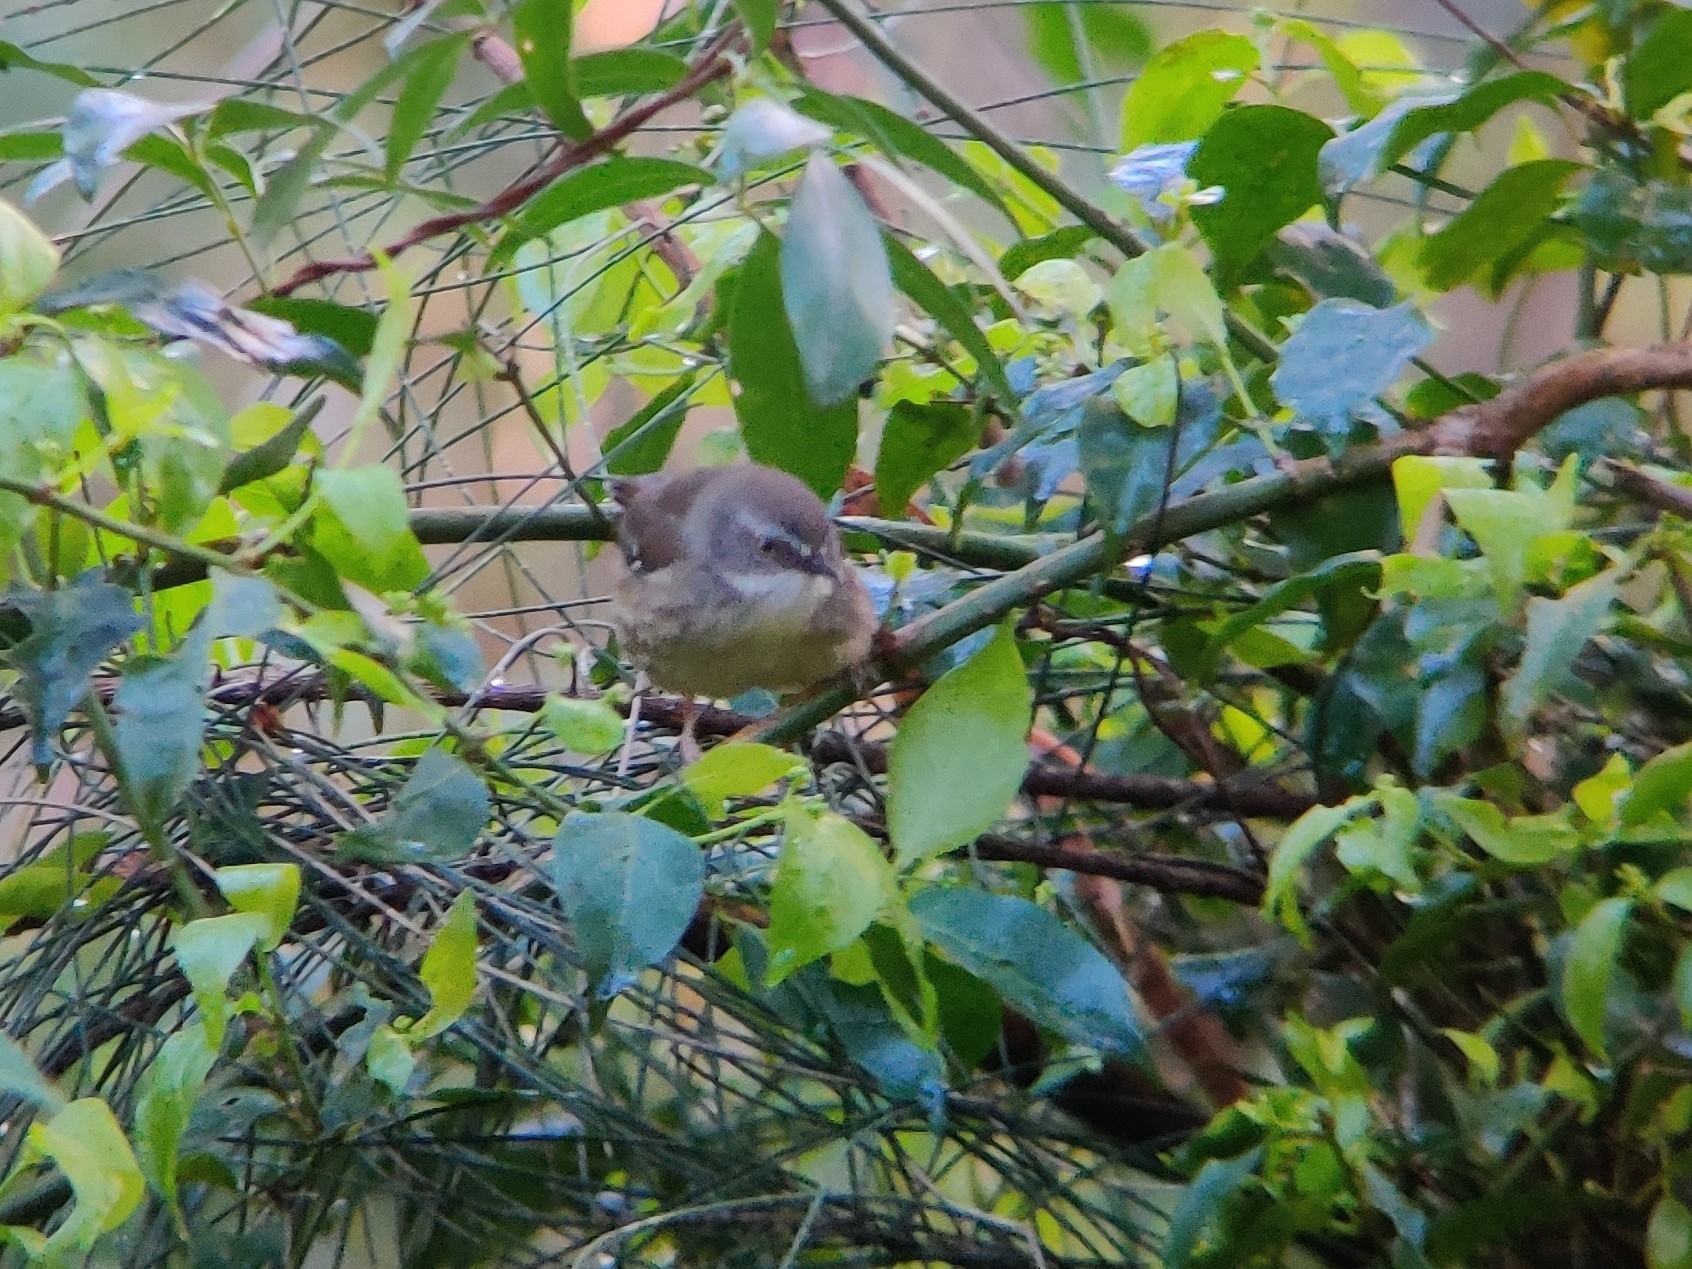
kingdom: Animalia
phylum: Chordata
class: Aves
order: Passeriformes
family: Acanthizidae
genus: Sericornis
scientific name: Sericornis frontalis
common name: White-browed scrubwren
